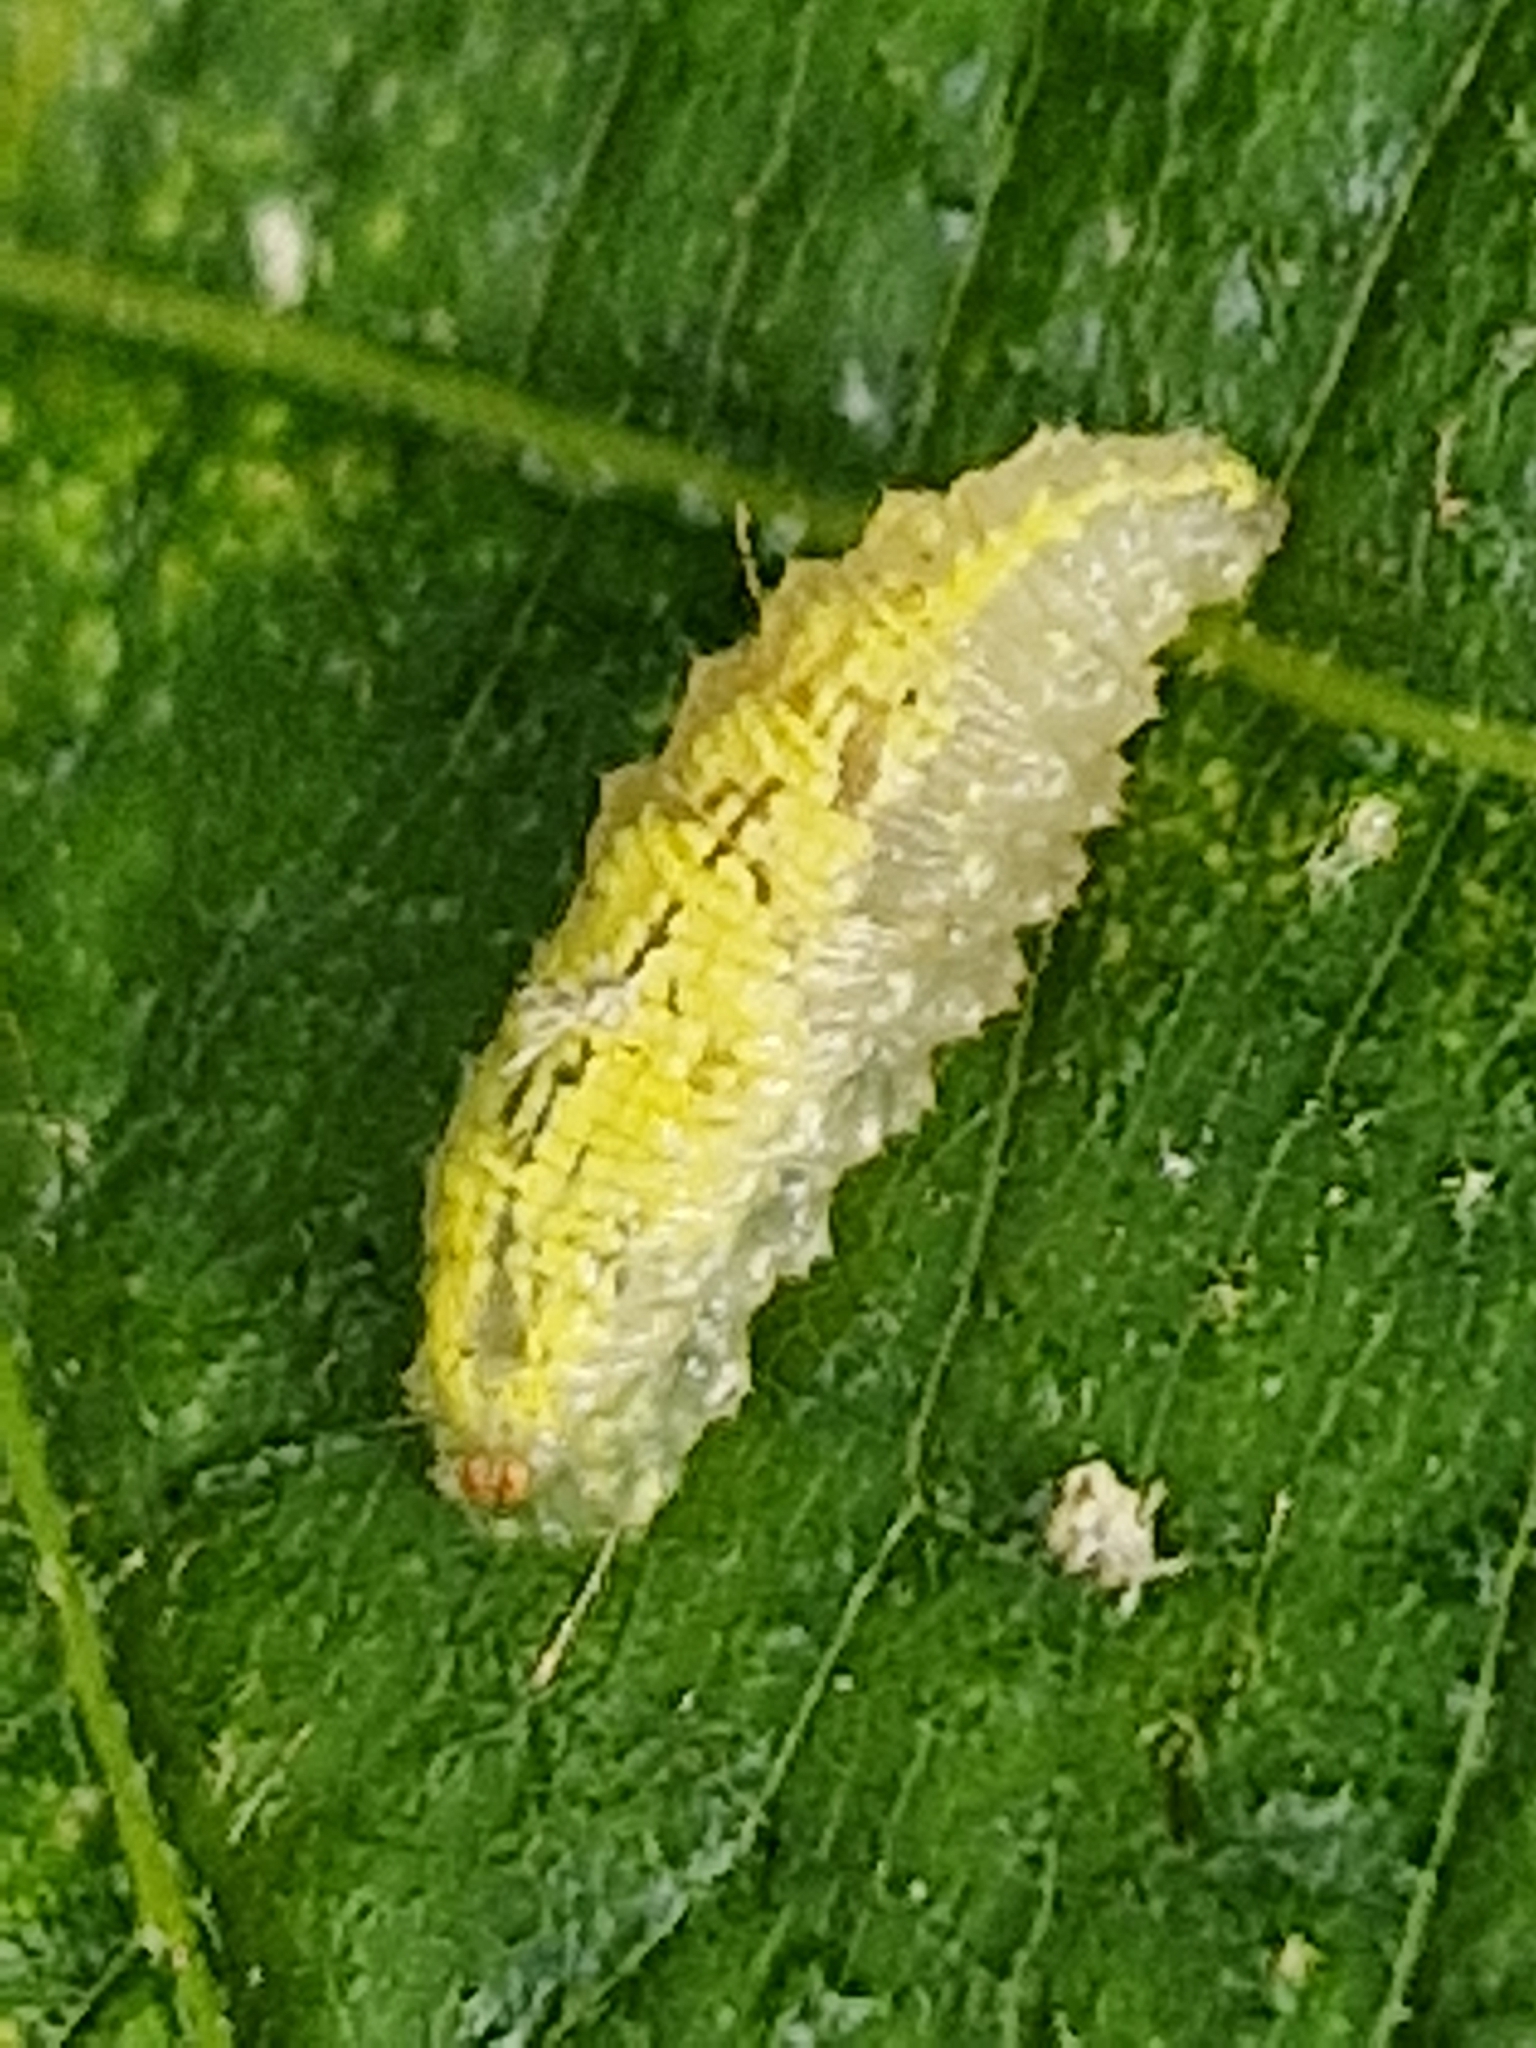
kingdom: Animalia
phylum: Arthropoda
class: Insecta
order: Diptera
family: Syrphidae
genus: Syrphus
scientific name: Syrphus
